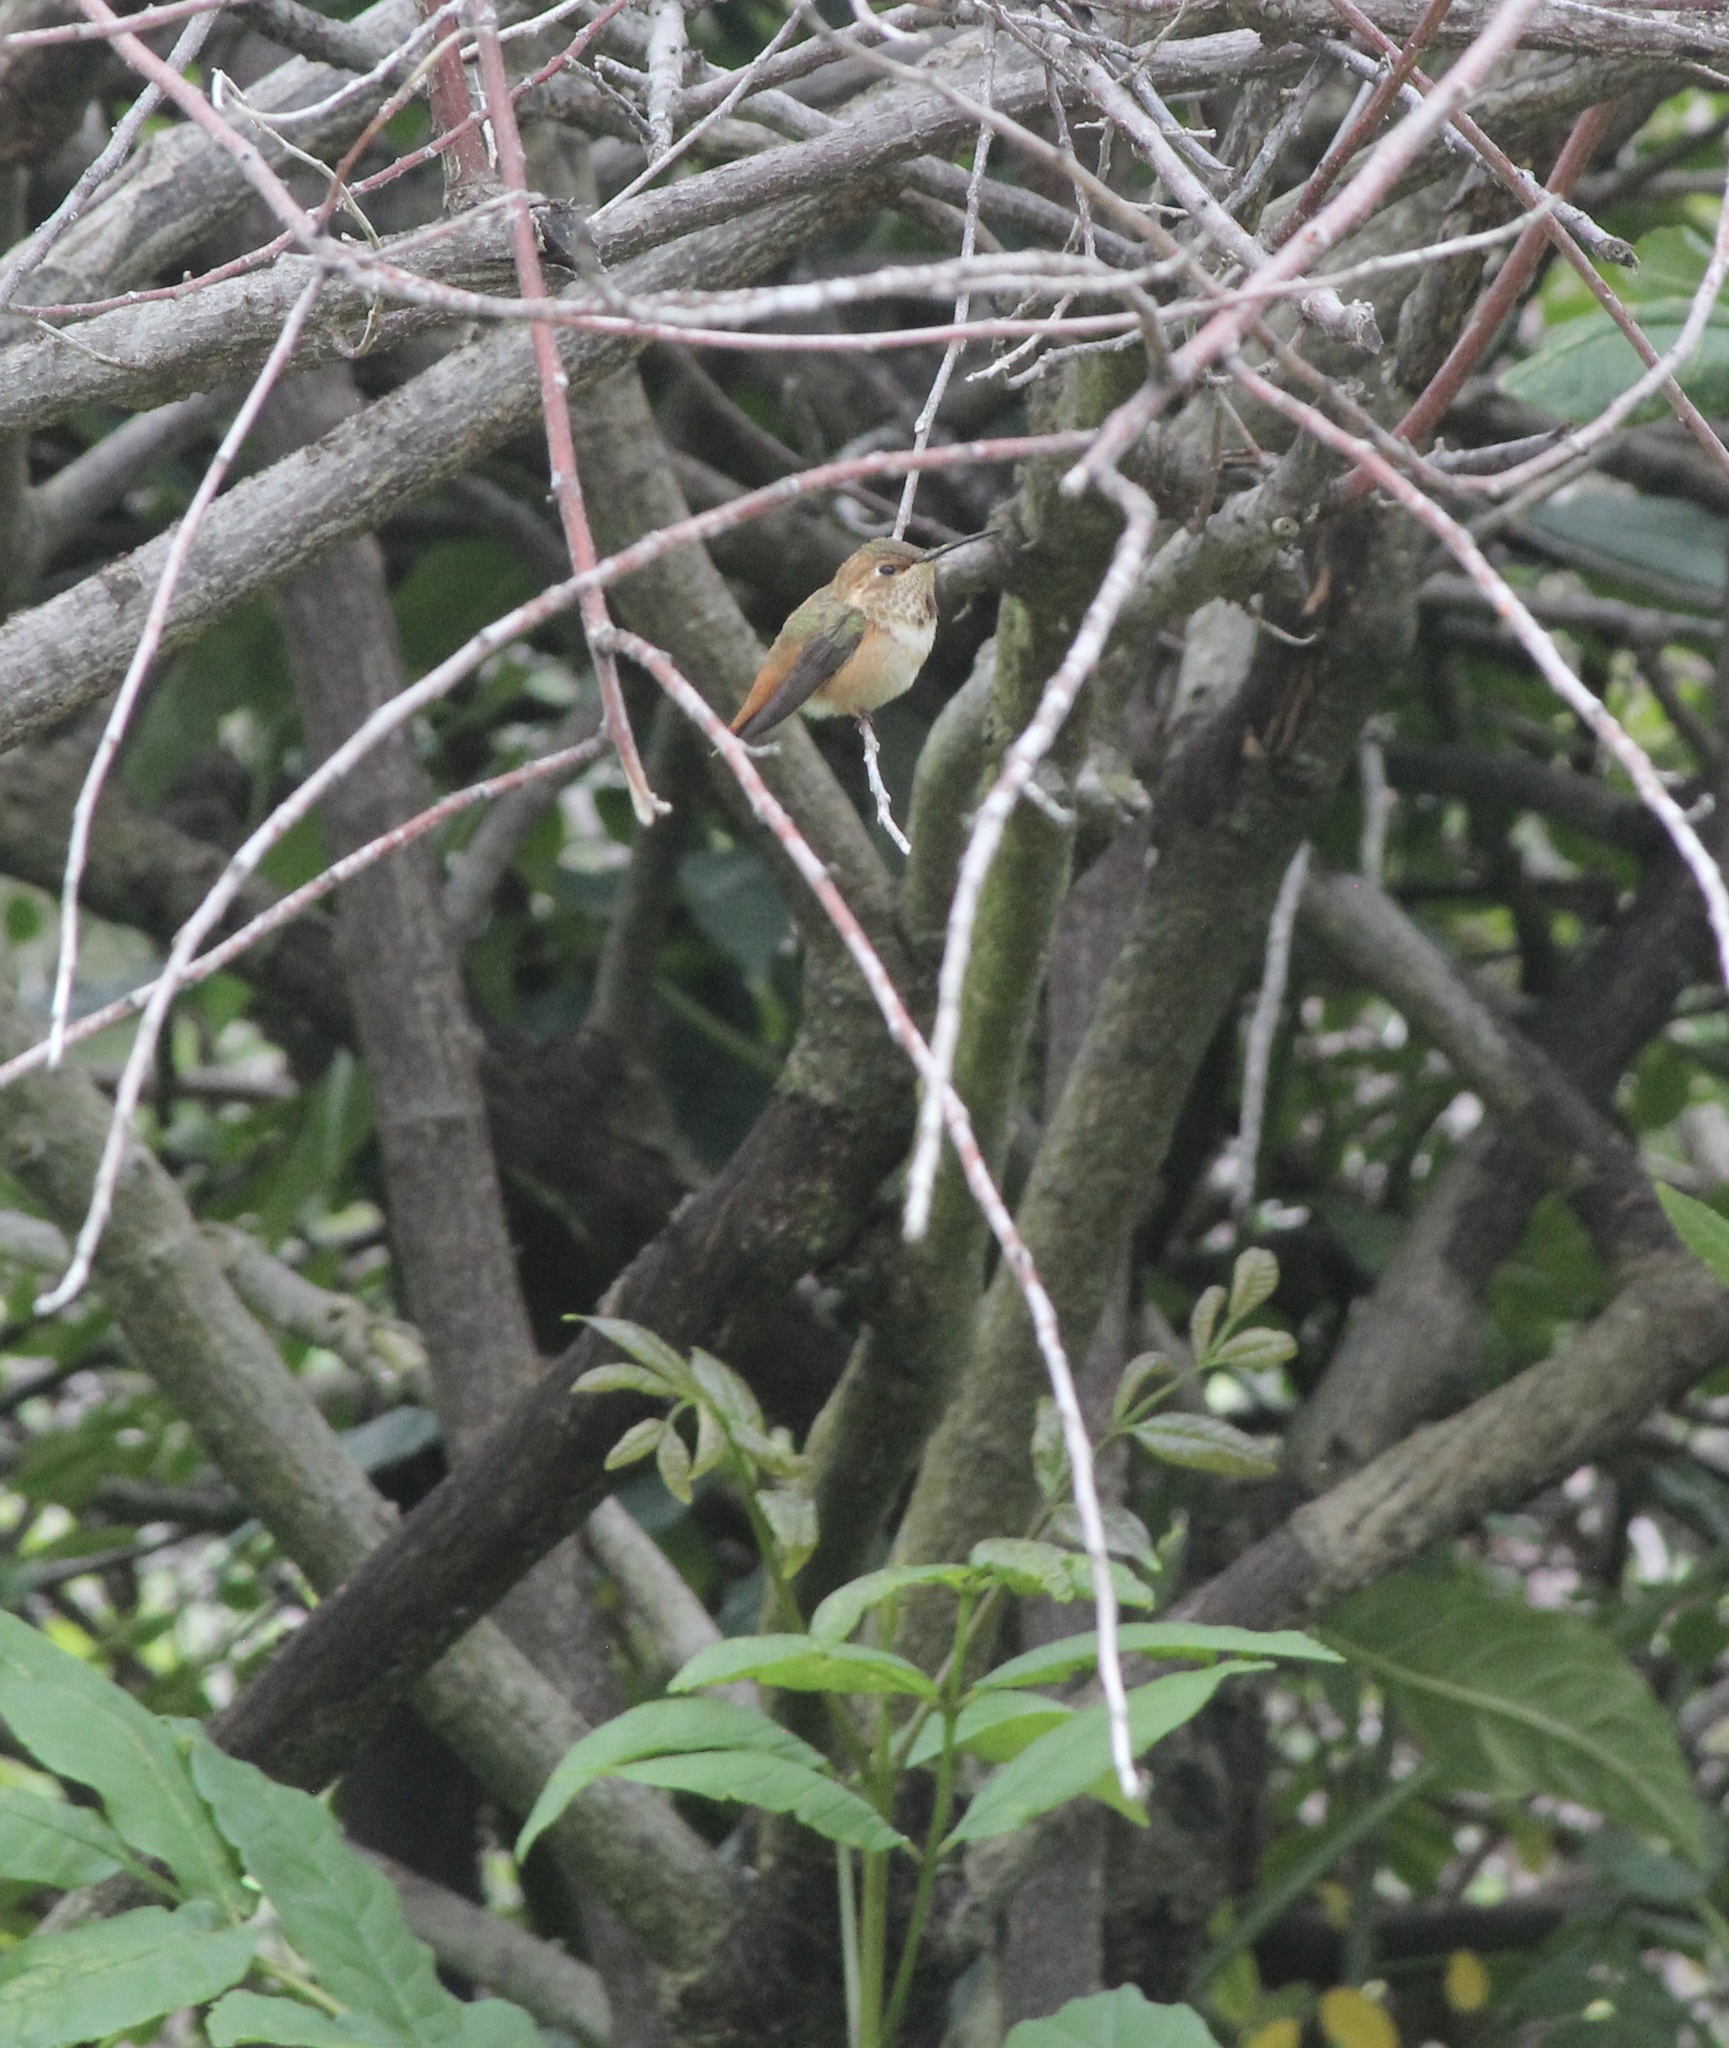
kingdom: Animalia
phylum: Chordata
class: Aves
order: Apodiformes
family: Trochilidae
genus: Selasphorus
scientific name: Selasphorus sasin
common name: Allen's hummingbird
